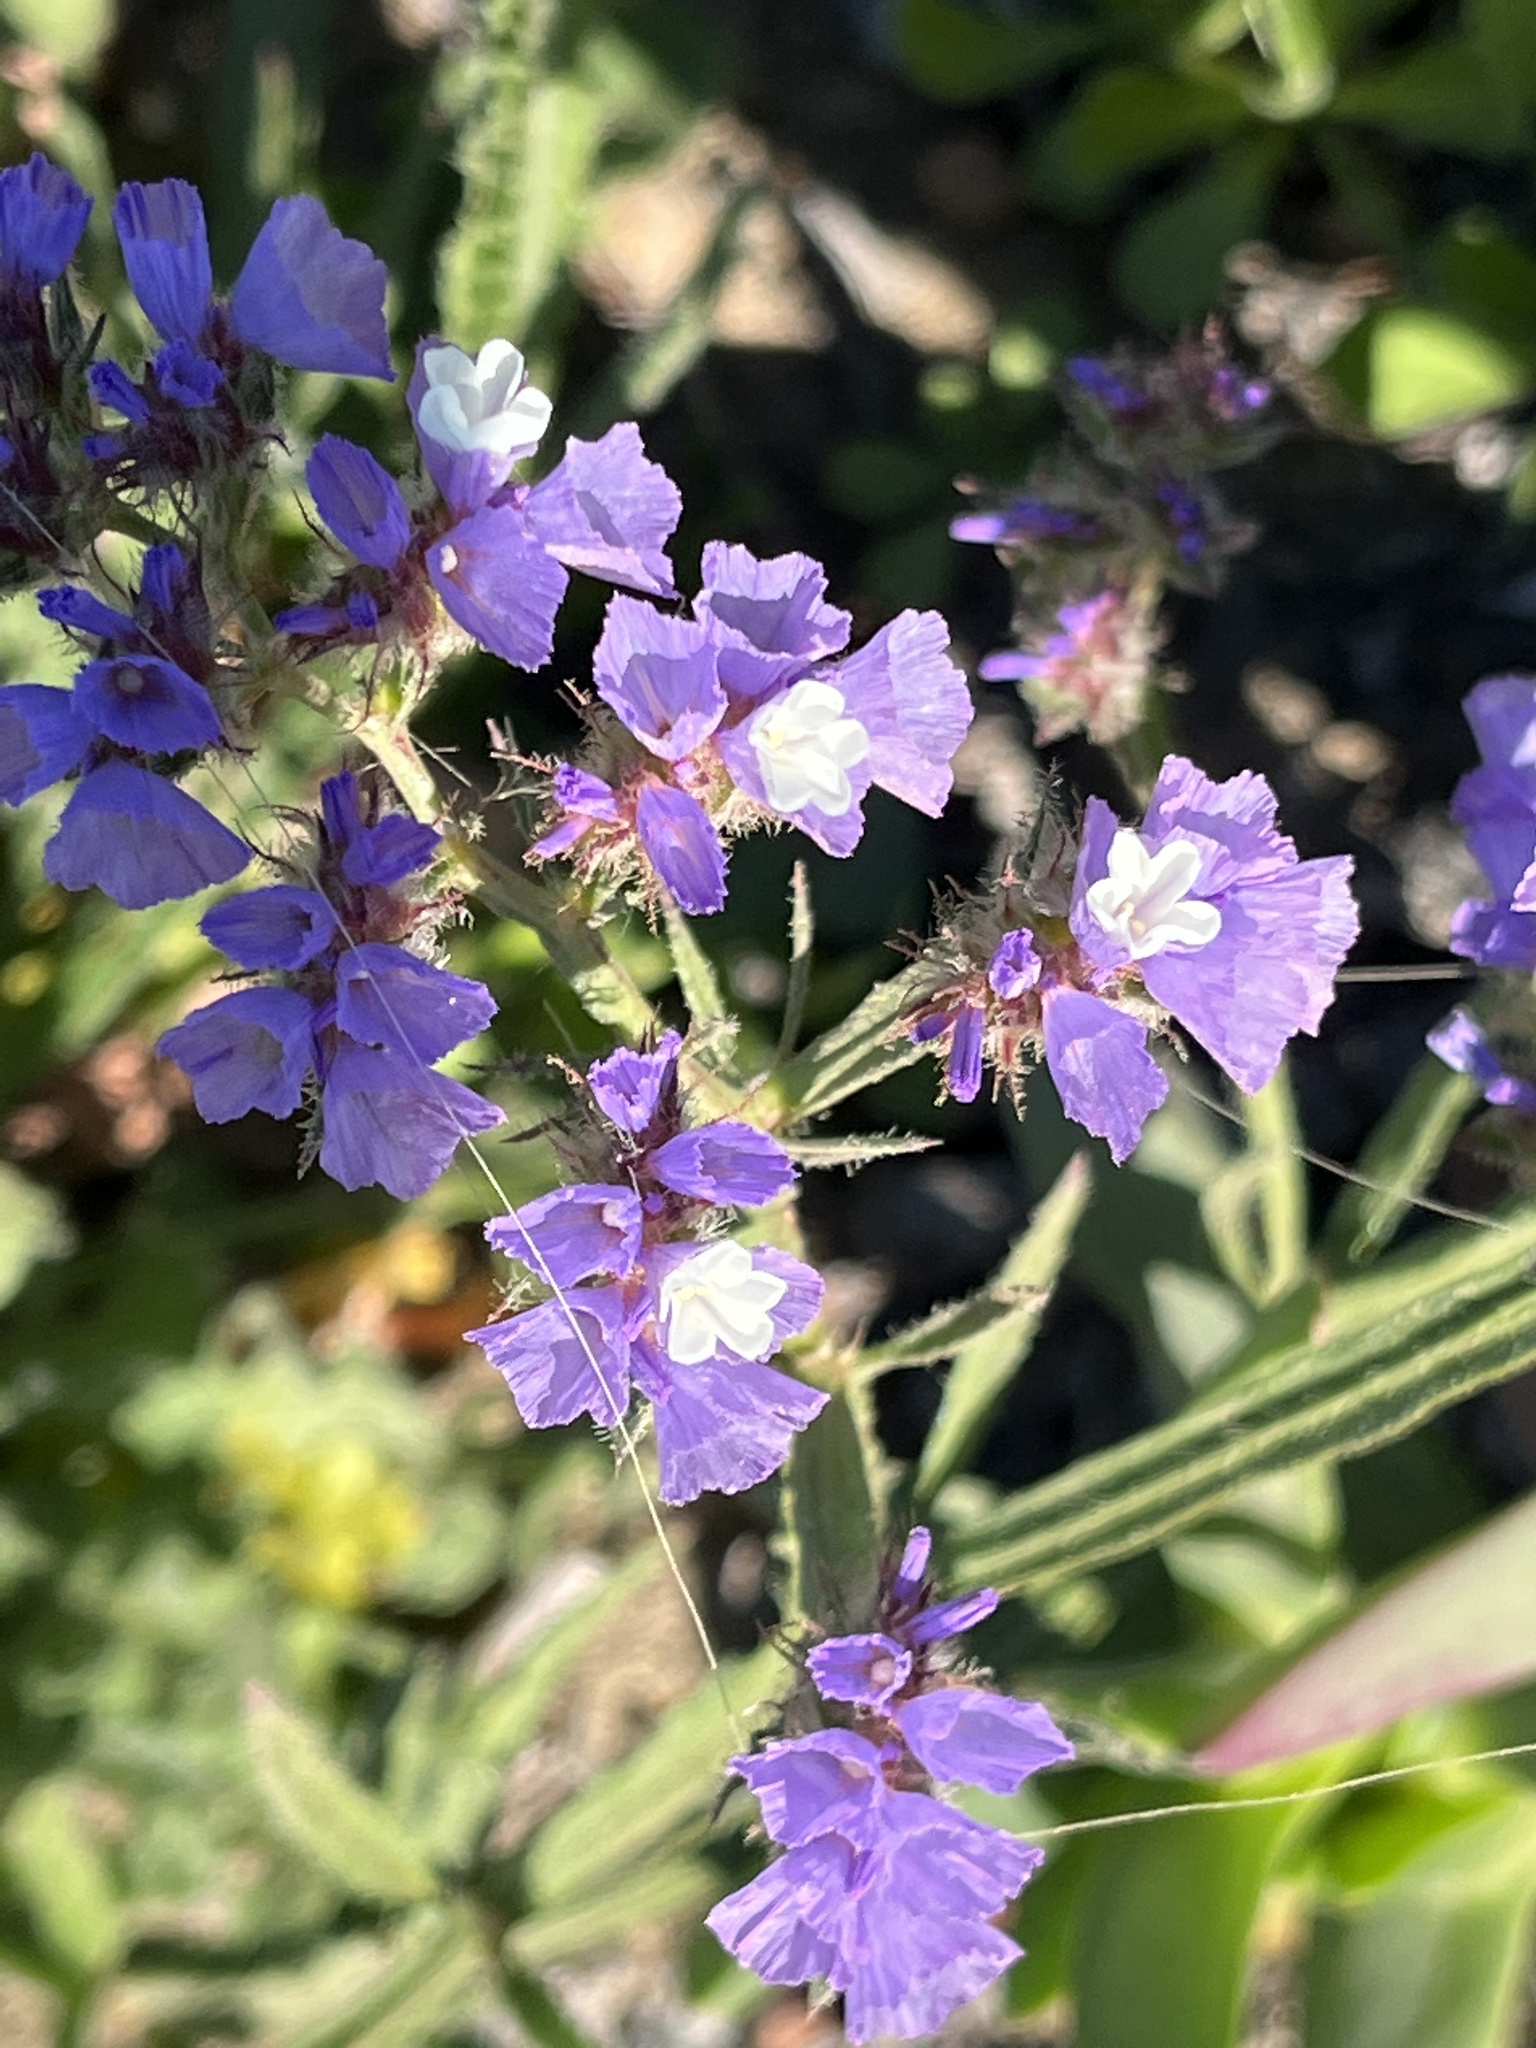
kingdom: Plantae
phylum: Tracheophyta
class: Magnoliopsida
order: Caryophyllales
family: Plumbaginaceae
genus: Limonium
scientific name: Limonium sinuatum
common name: Statice
